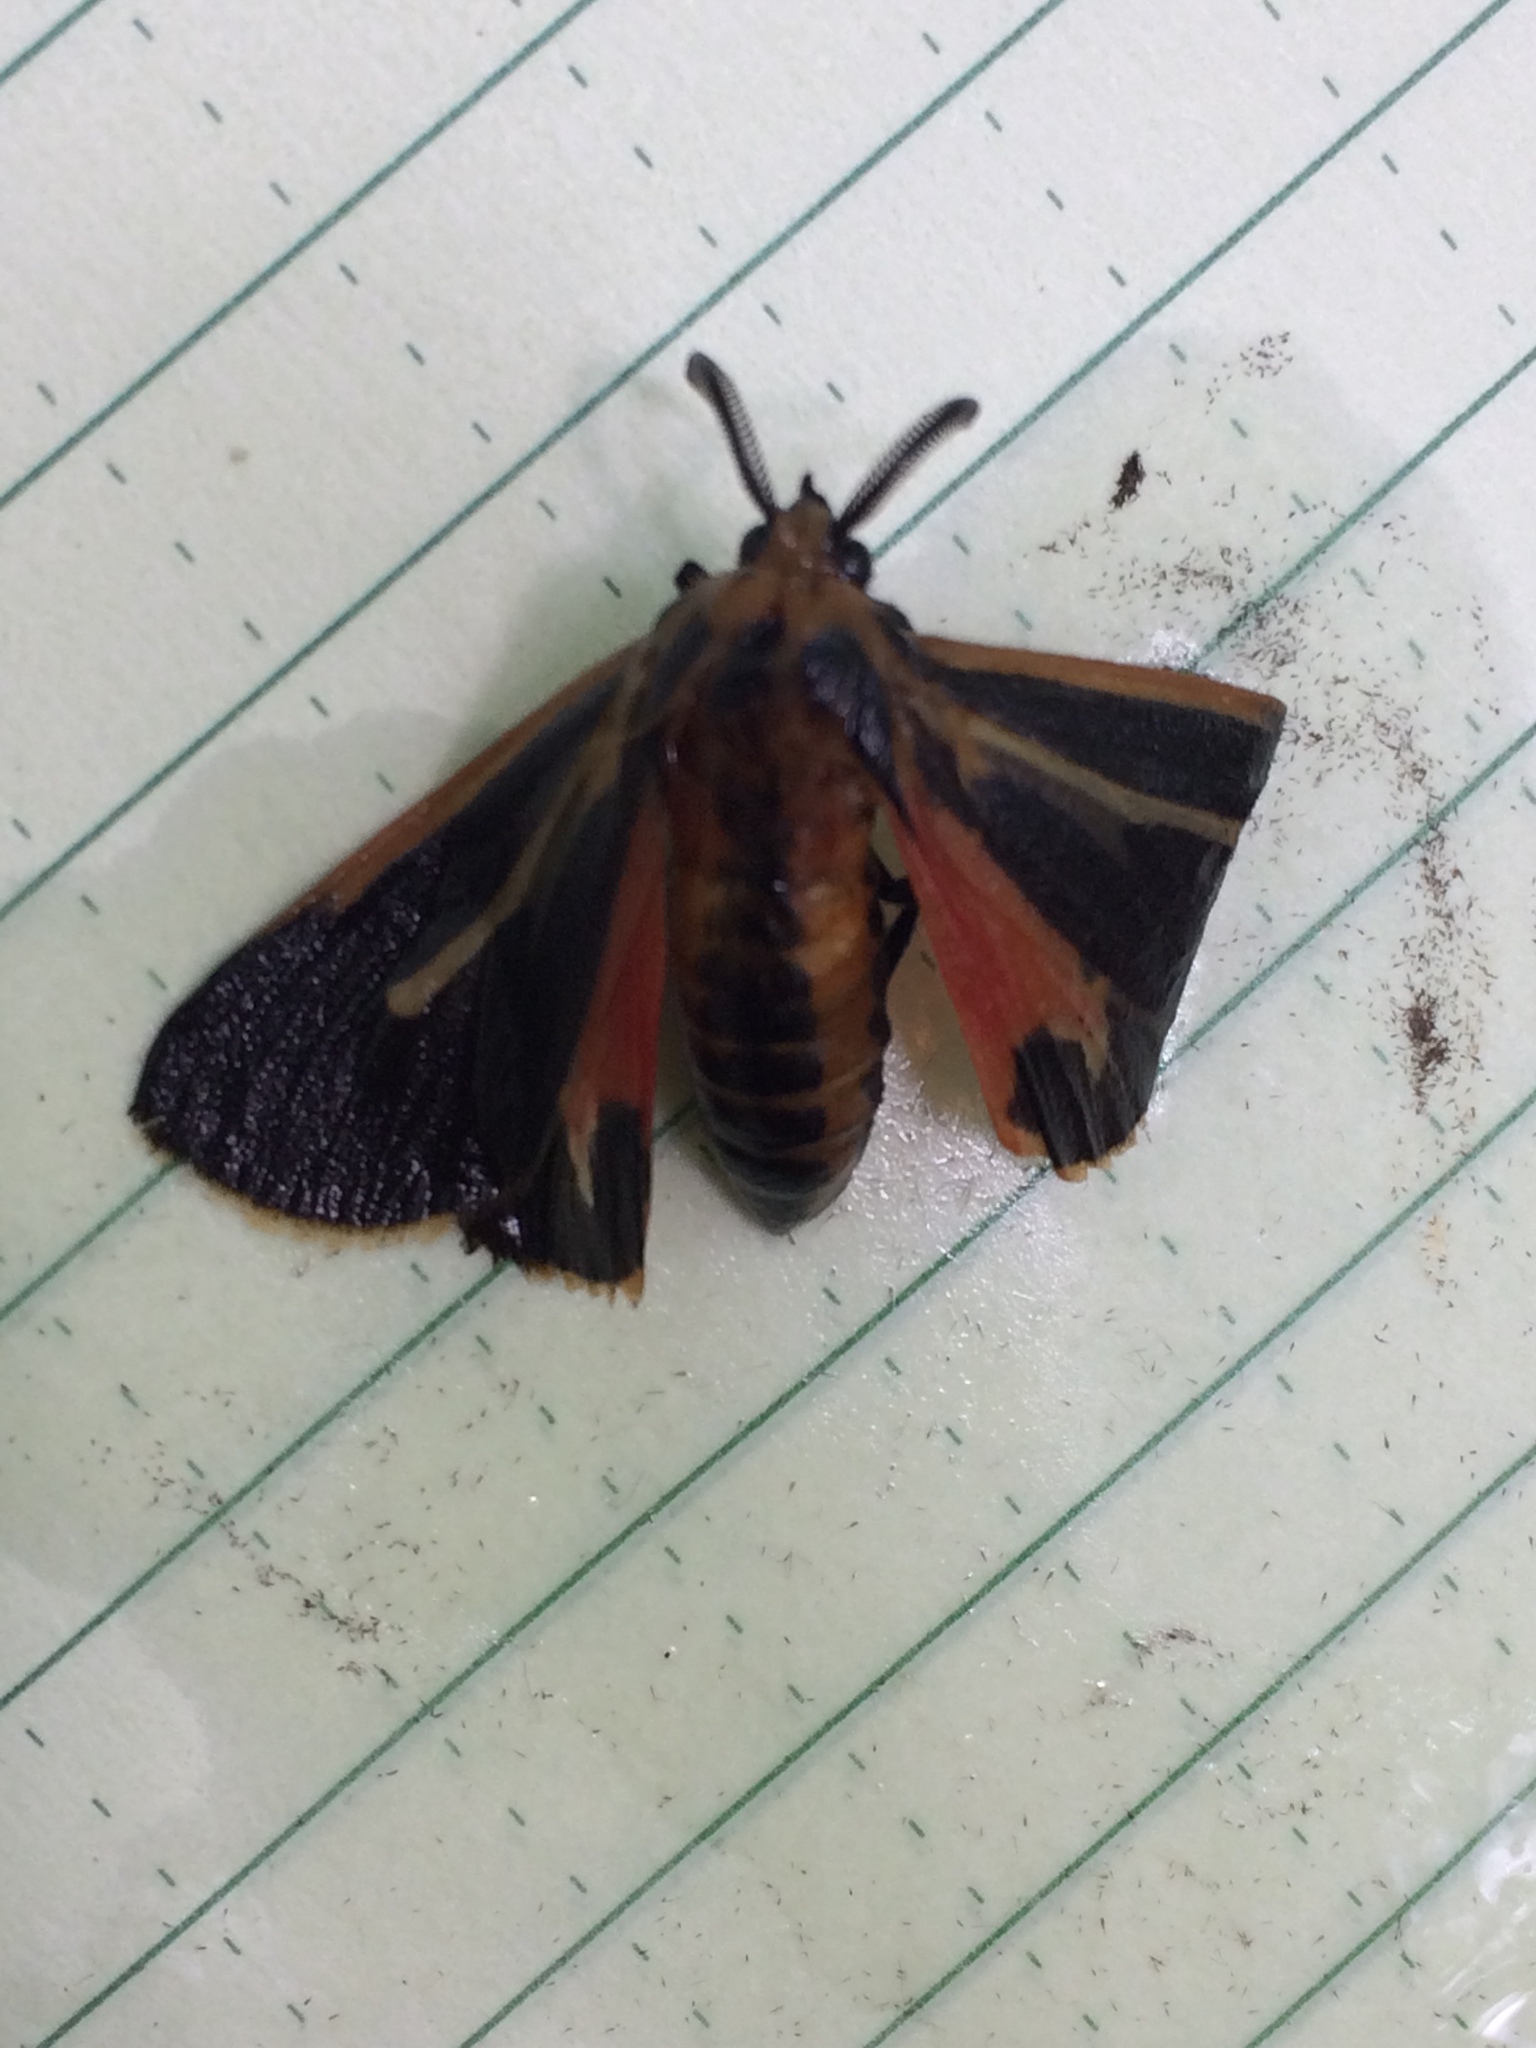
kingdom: Animalia
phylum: Arthropoda
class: Insecta
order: Lepidoptera
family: Erebidae
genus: Apantesis
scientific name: Apantesis vittata
